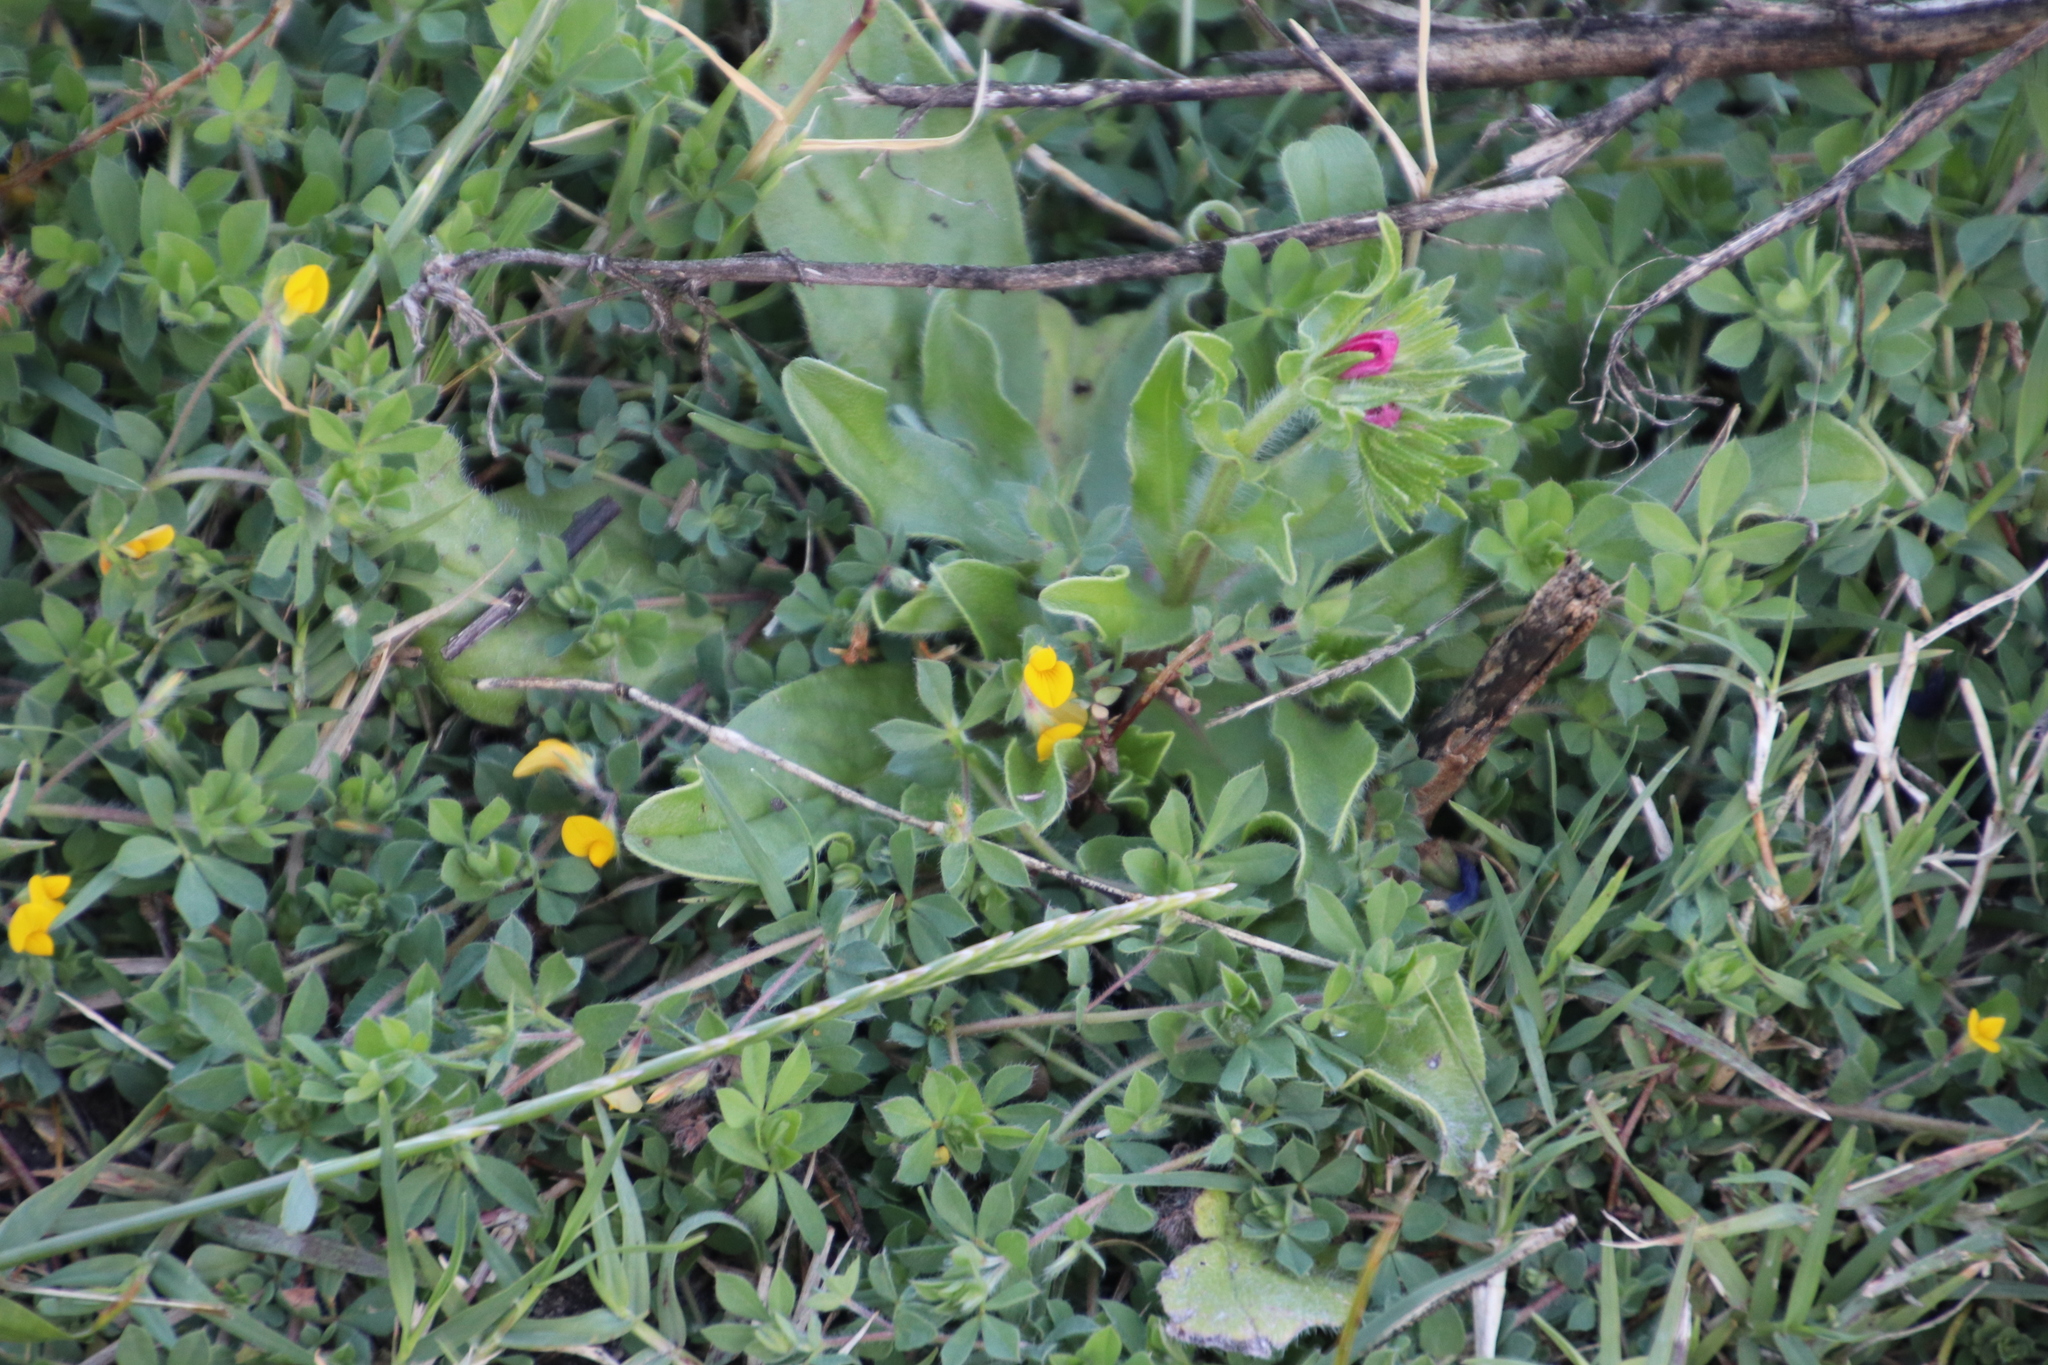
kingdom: Plantae
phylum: Tracheophyta
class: Magnoliopsida
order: Fabales
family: Fabaceae
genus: Lotus
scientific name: Lotus subbiflorus
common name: Hairy bird's-foot trefoil
